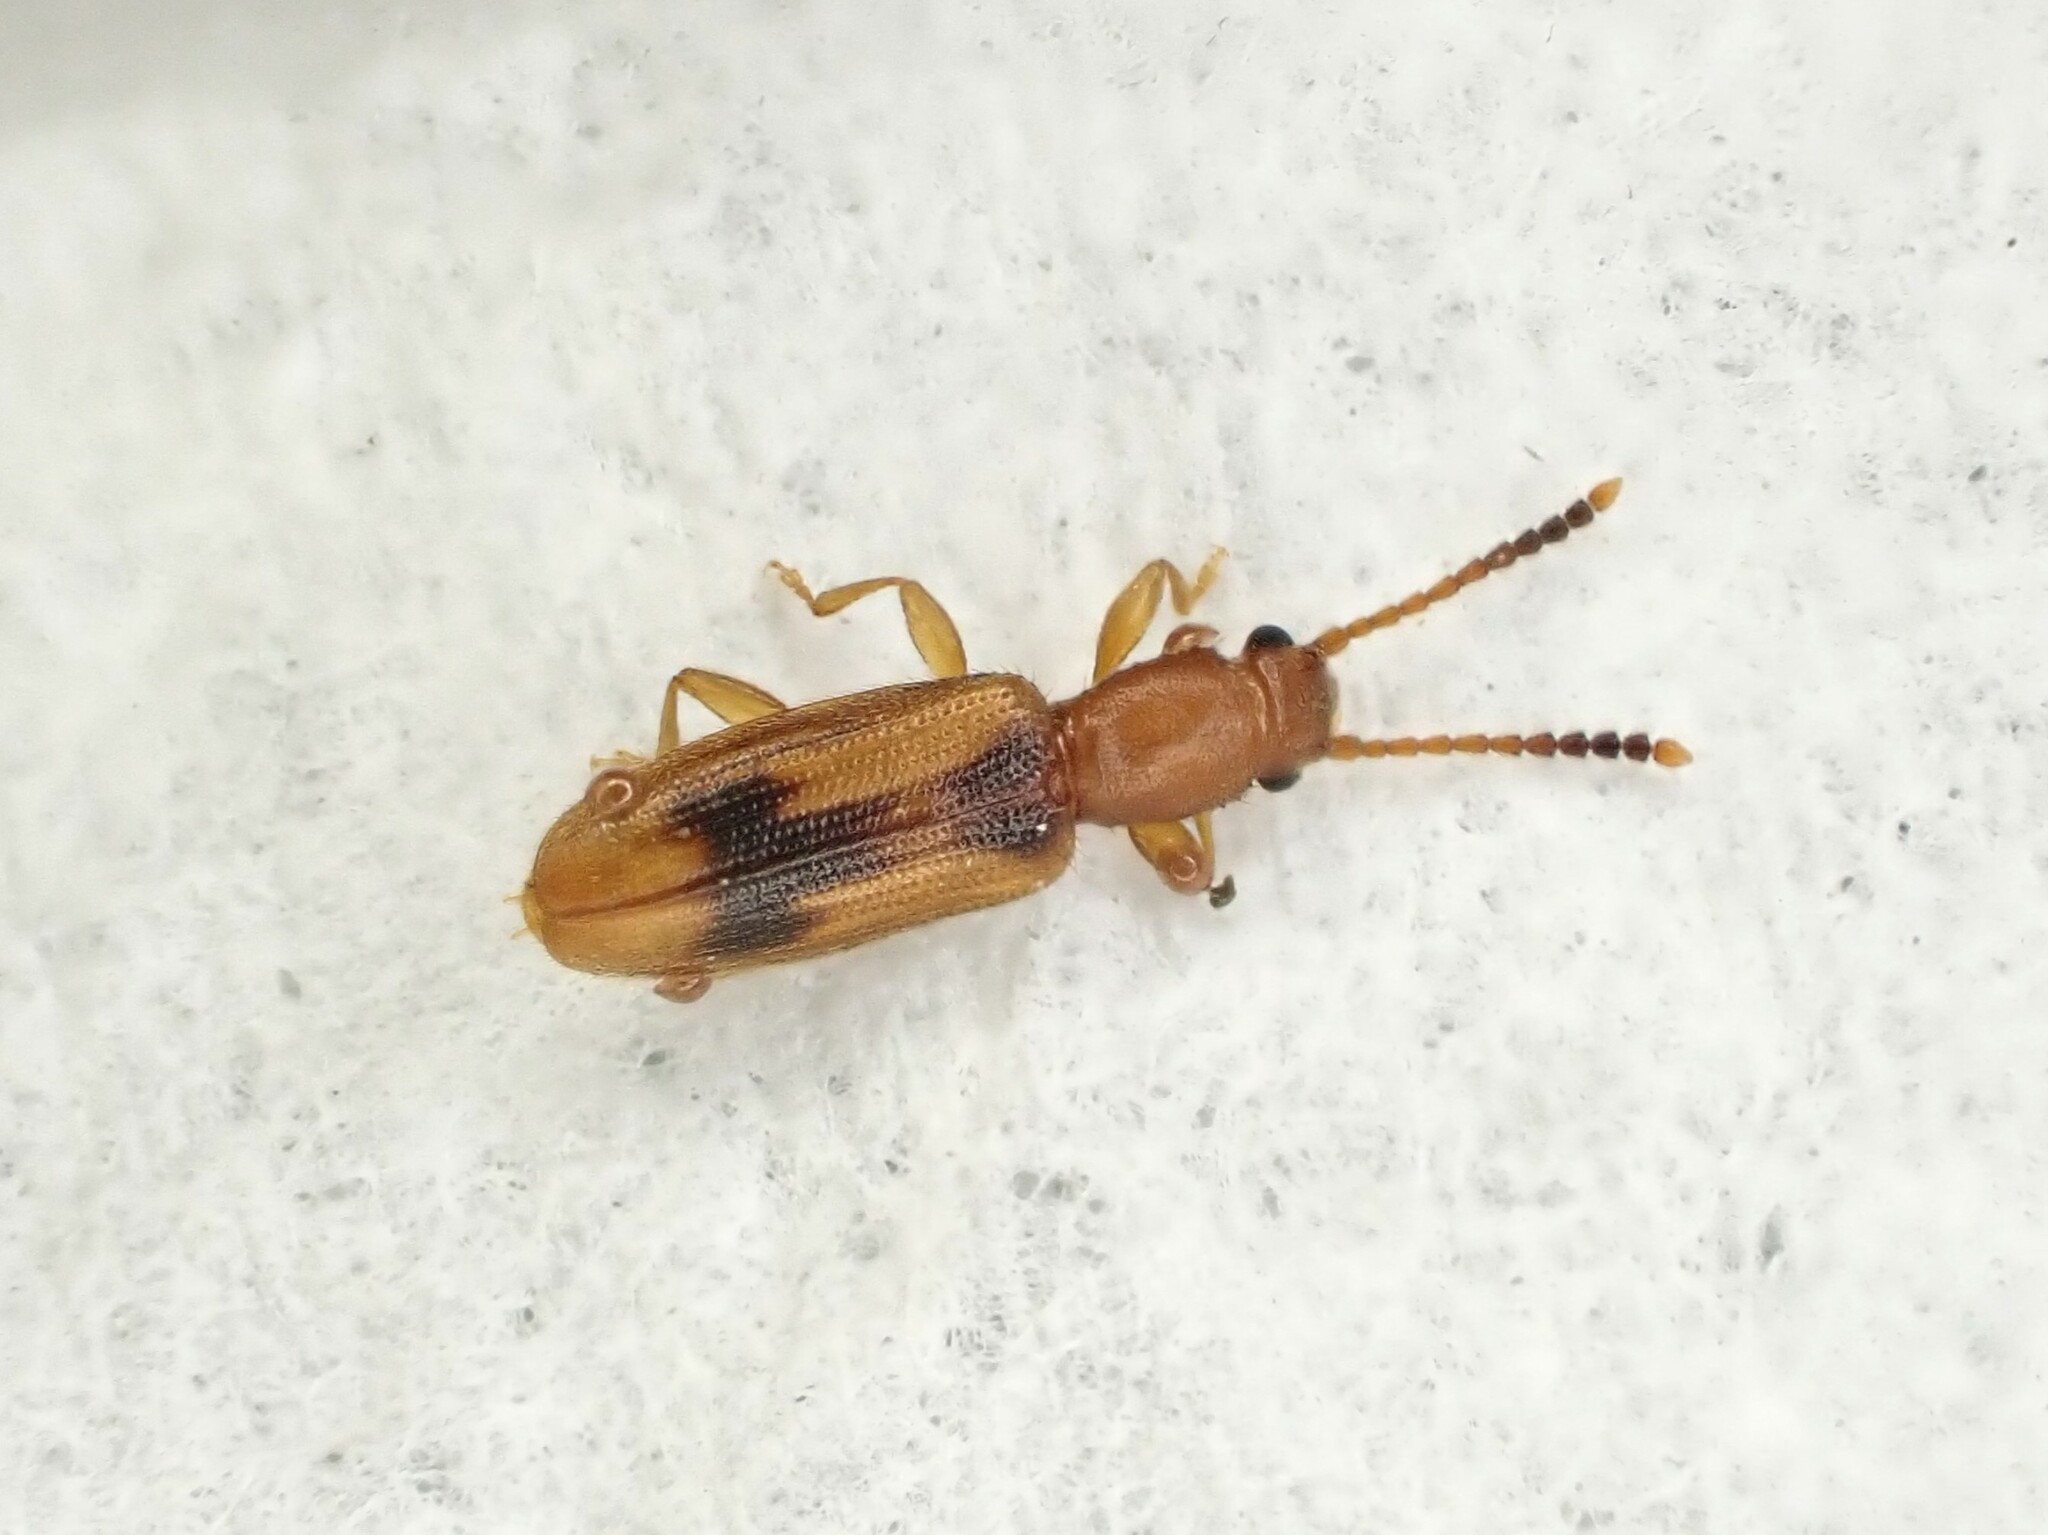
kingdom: Animalia
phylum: Arthropoda
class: Insecta
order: Coleoptera
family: Silvanidae
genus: Cryptamorpha
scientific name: Cryptamorpha desjardinsi
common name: Cryptamorpha
